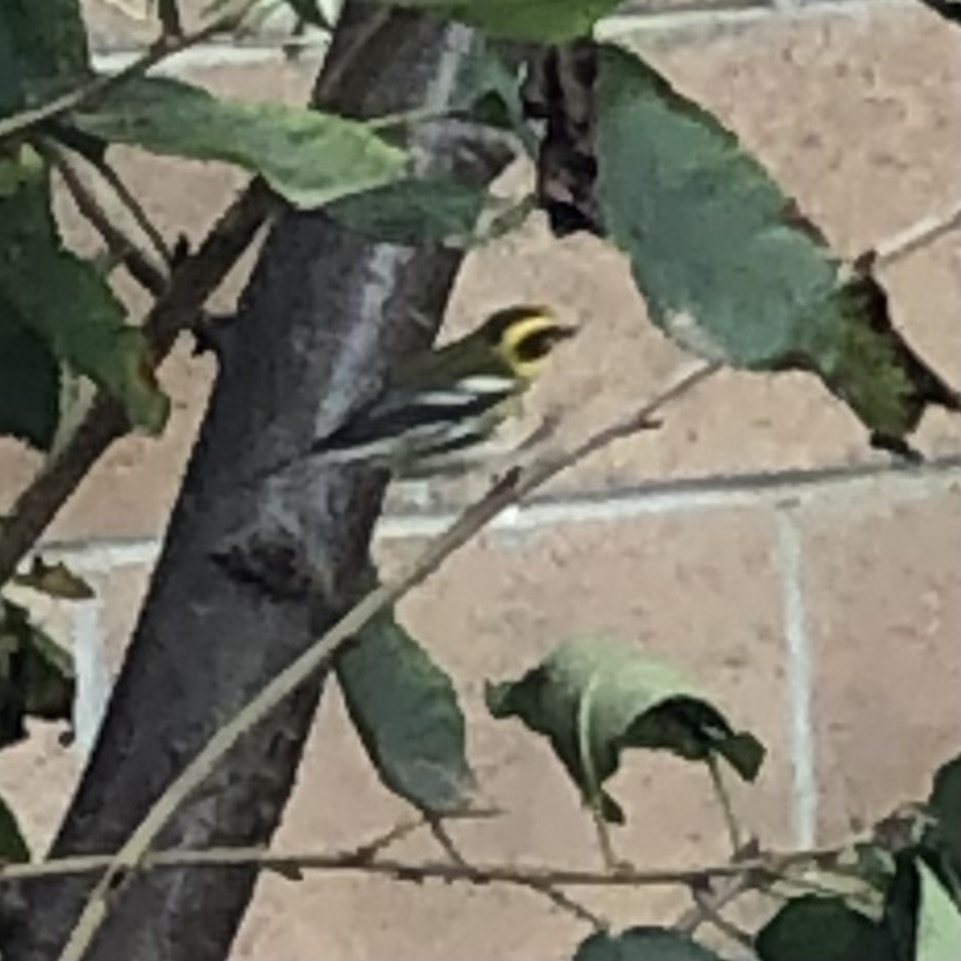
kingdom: Animalia
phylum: Chordata
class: Aves
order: Passeriformes
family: Parulidae
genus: Setophaga
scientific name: Setophaga townsendi
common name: Townsend's warbler
